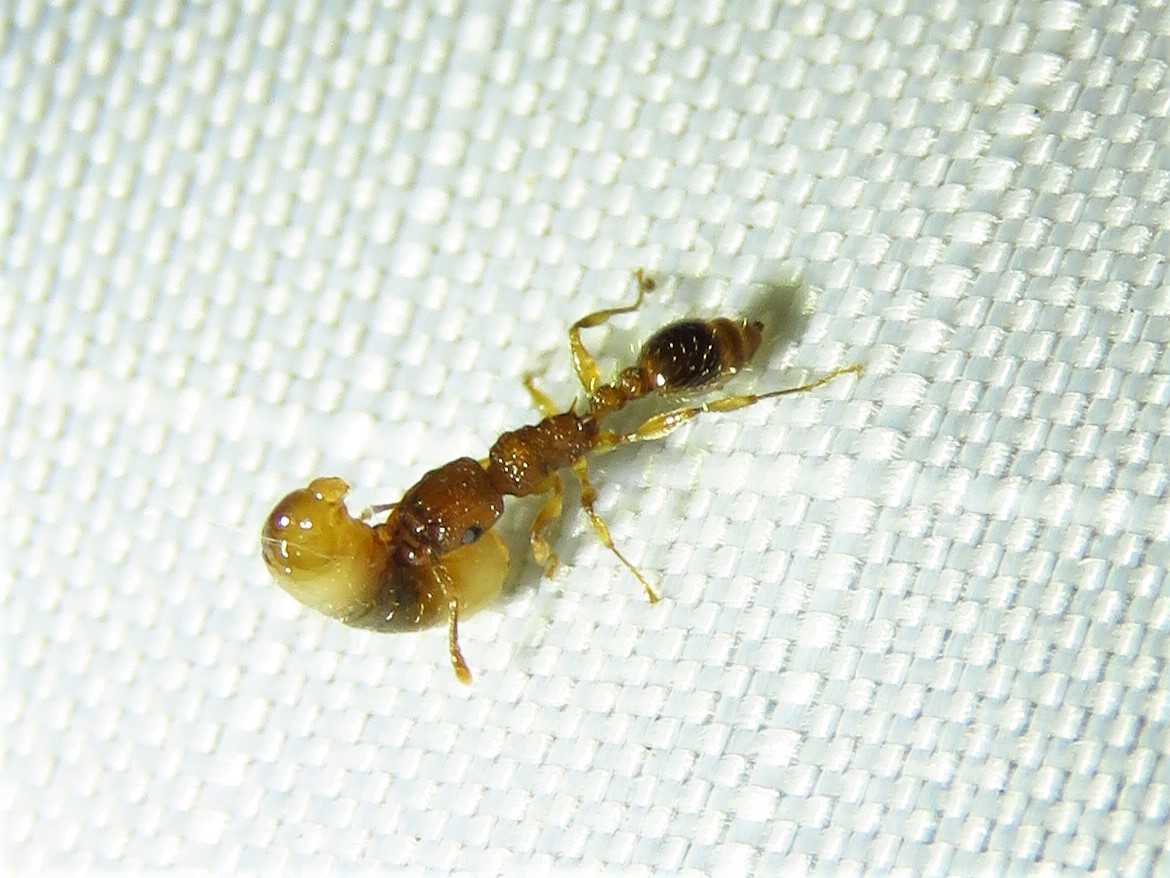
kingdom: Animalia
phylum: Arthropoda
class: Insecta
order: Hymenoptera
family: Formicidae
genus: Tetramorium
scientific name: Tetramorium bicarinatum
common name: Guinea ant
